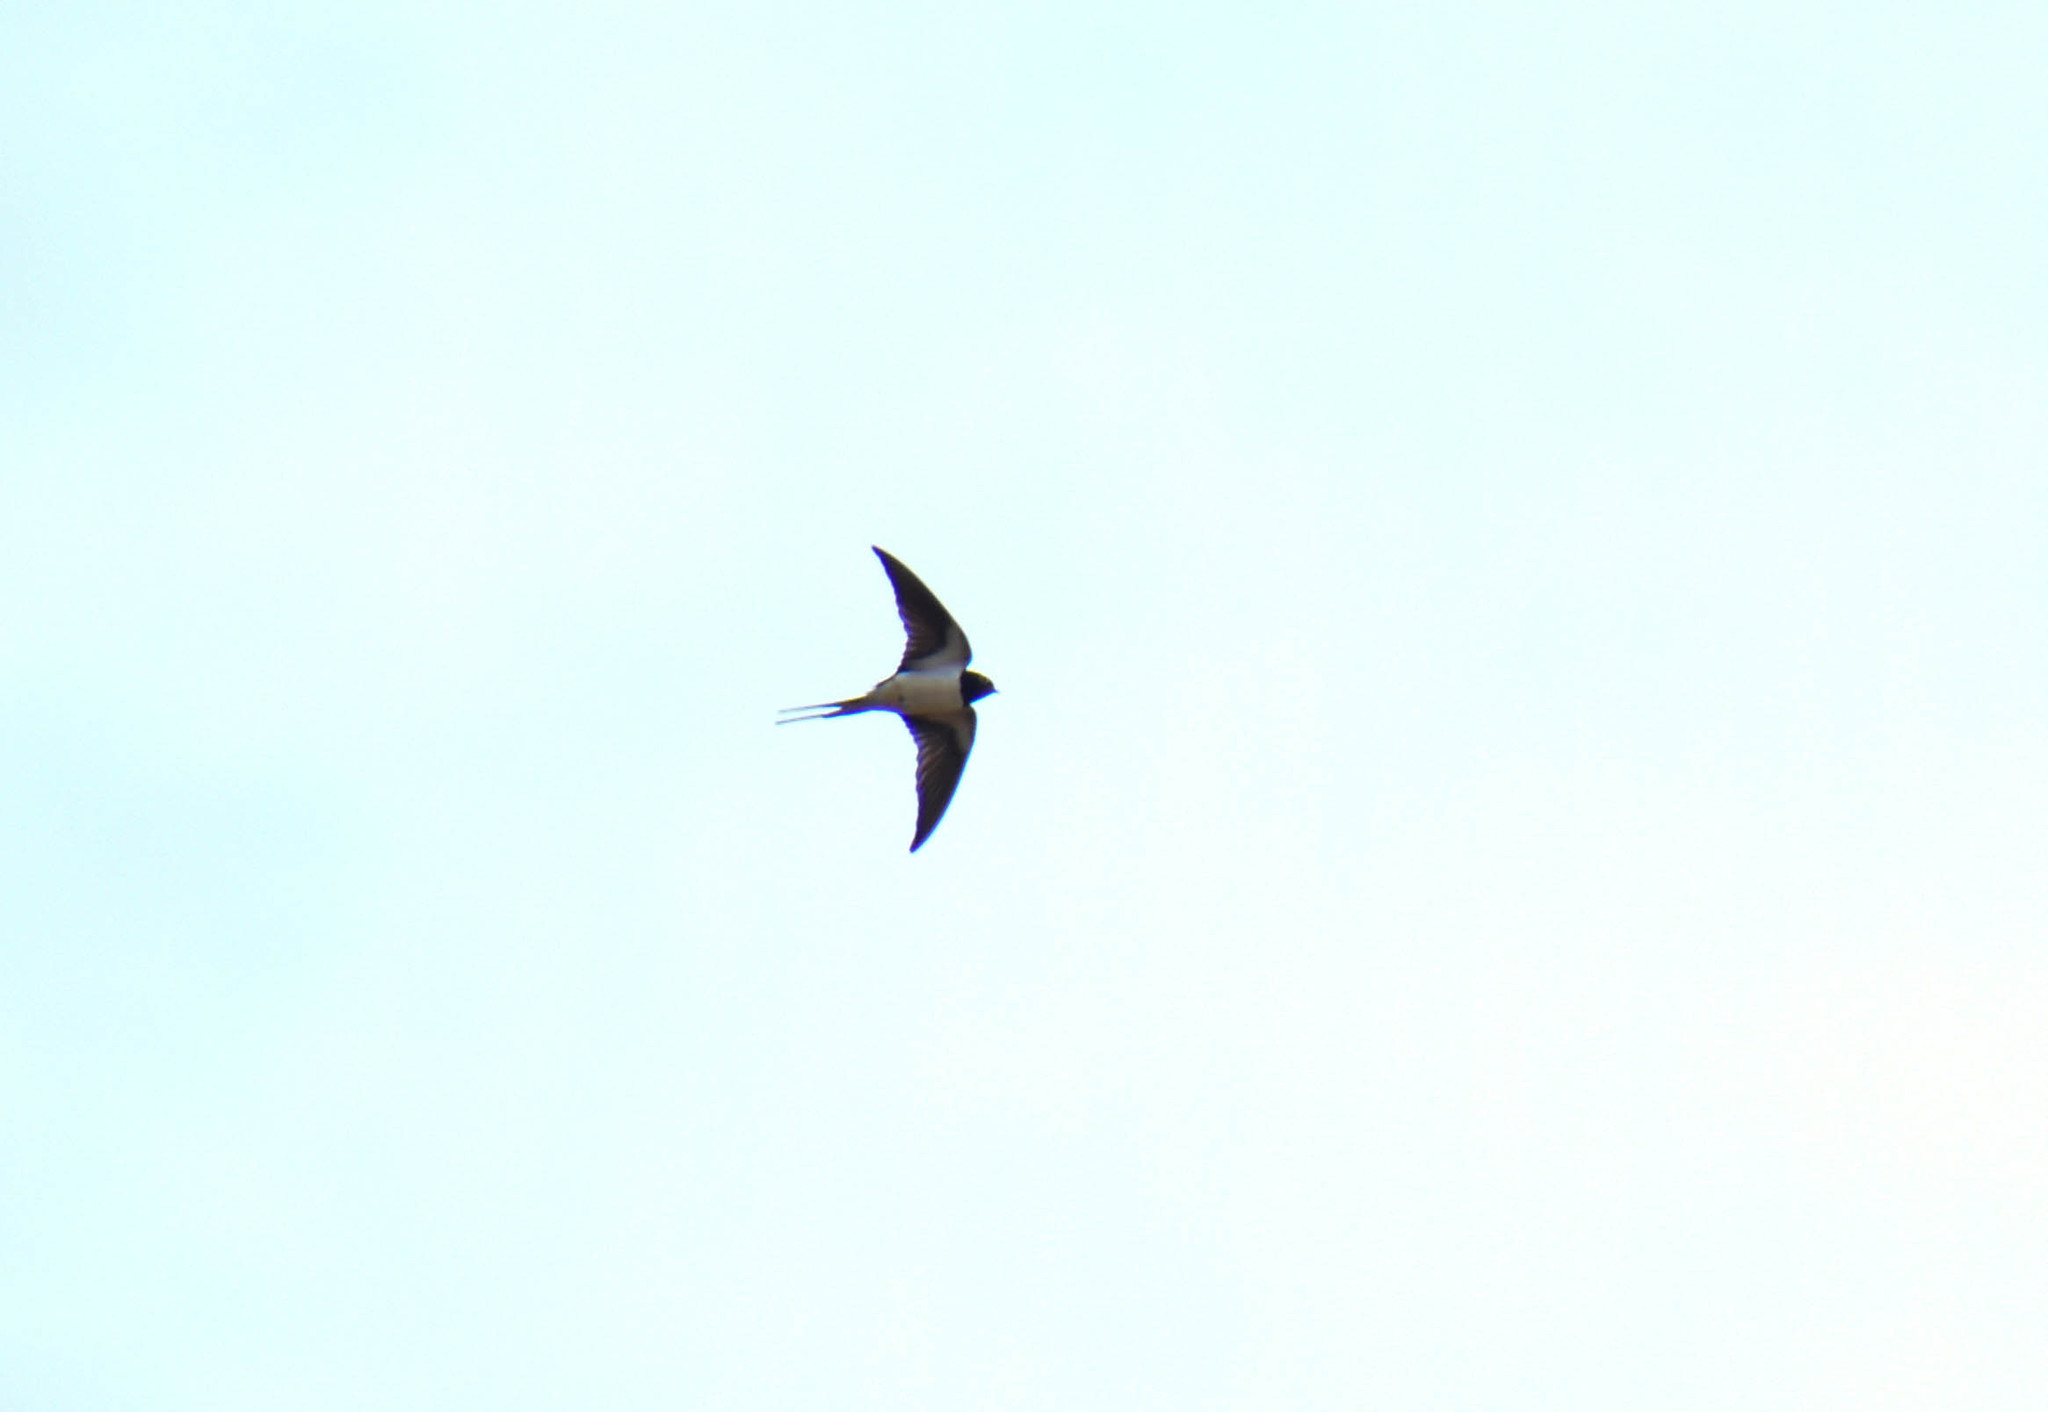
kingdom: Animalia
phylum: Chordata
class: Aves
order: Passeriformes
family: Hirundinidae
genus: Hirundo
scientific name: Hirundo rustica
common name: Barn swallow
